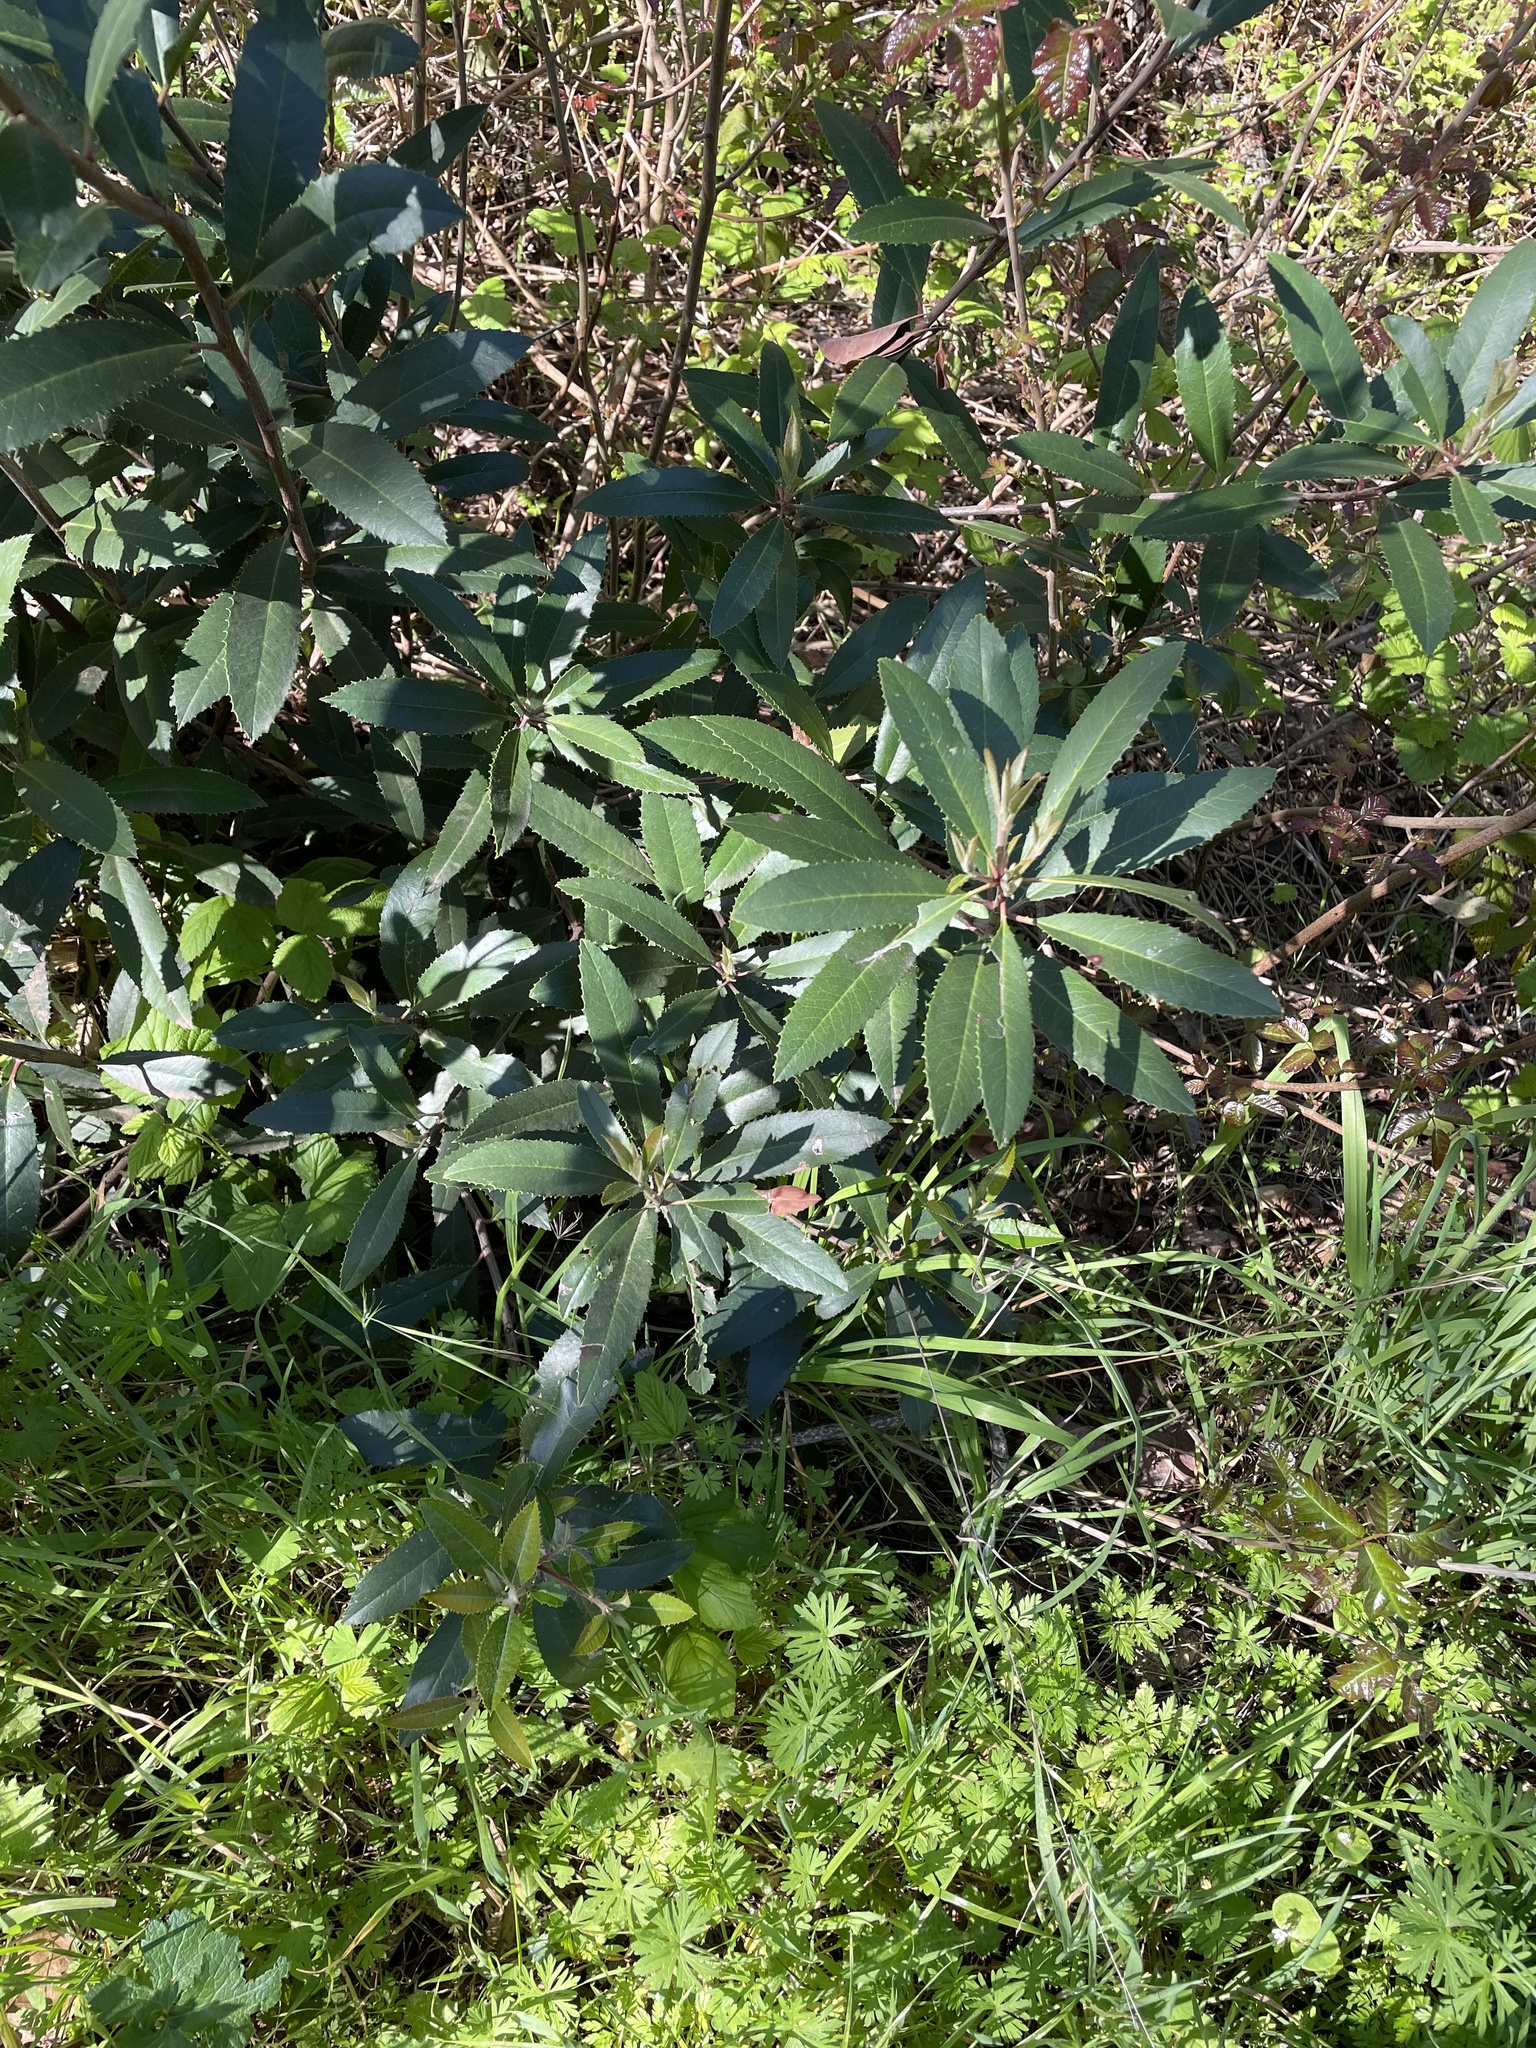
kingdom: Plantae
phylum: Tracheophyta
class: Magnoliopsida
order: Rosales
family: Rosaceae
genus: Heteromeles
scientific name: Heteromeles arbutifolia
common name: California-holly
